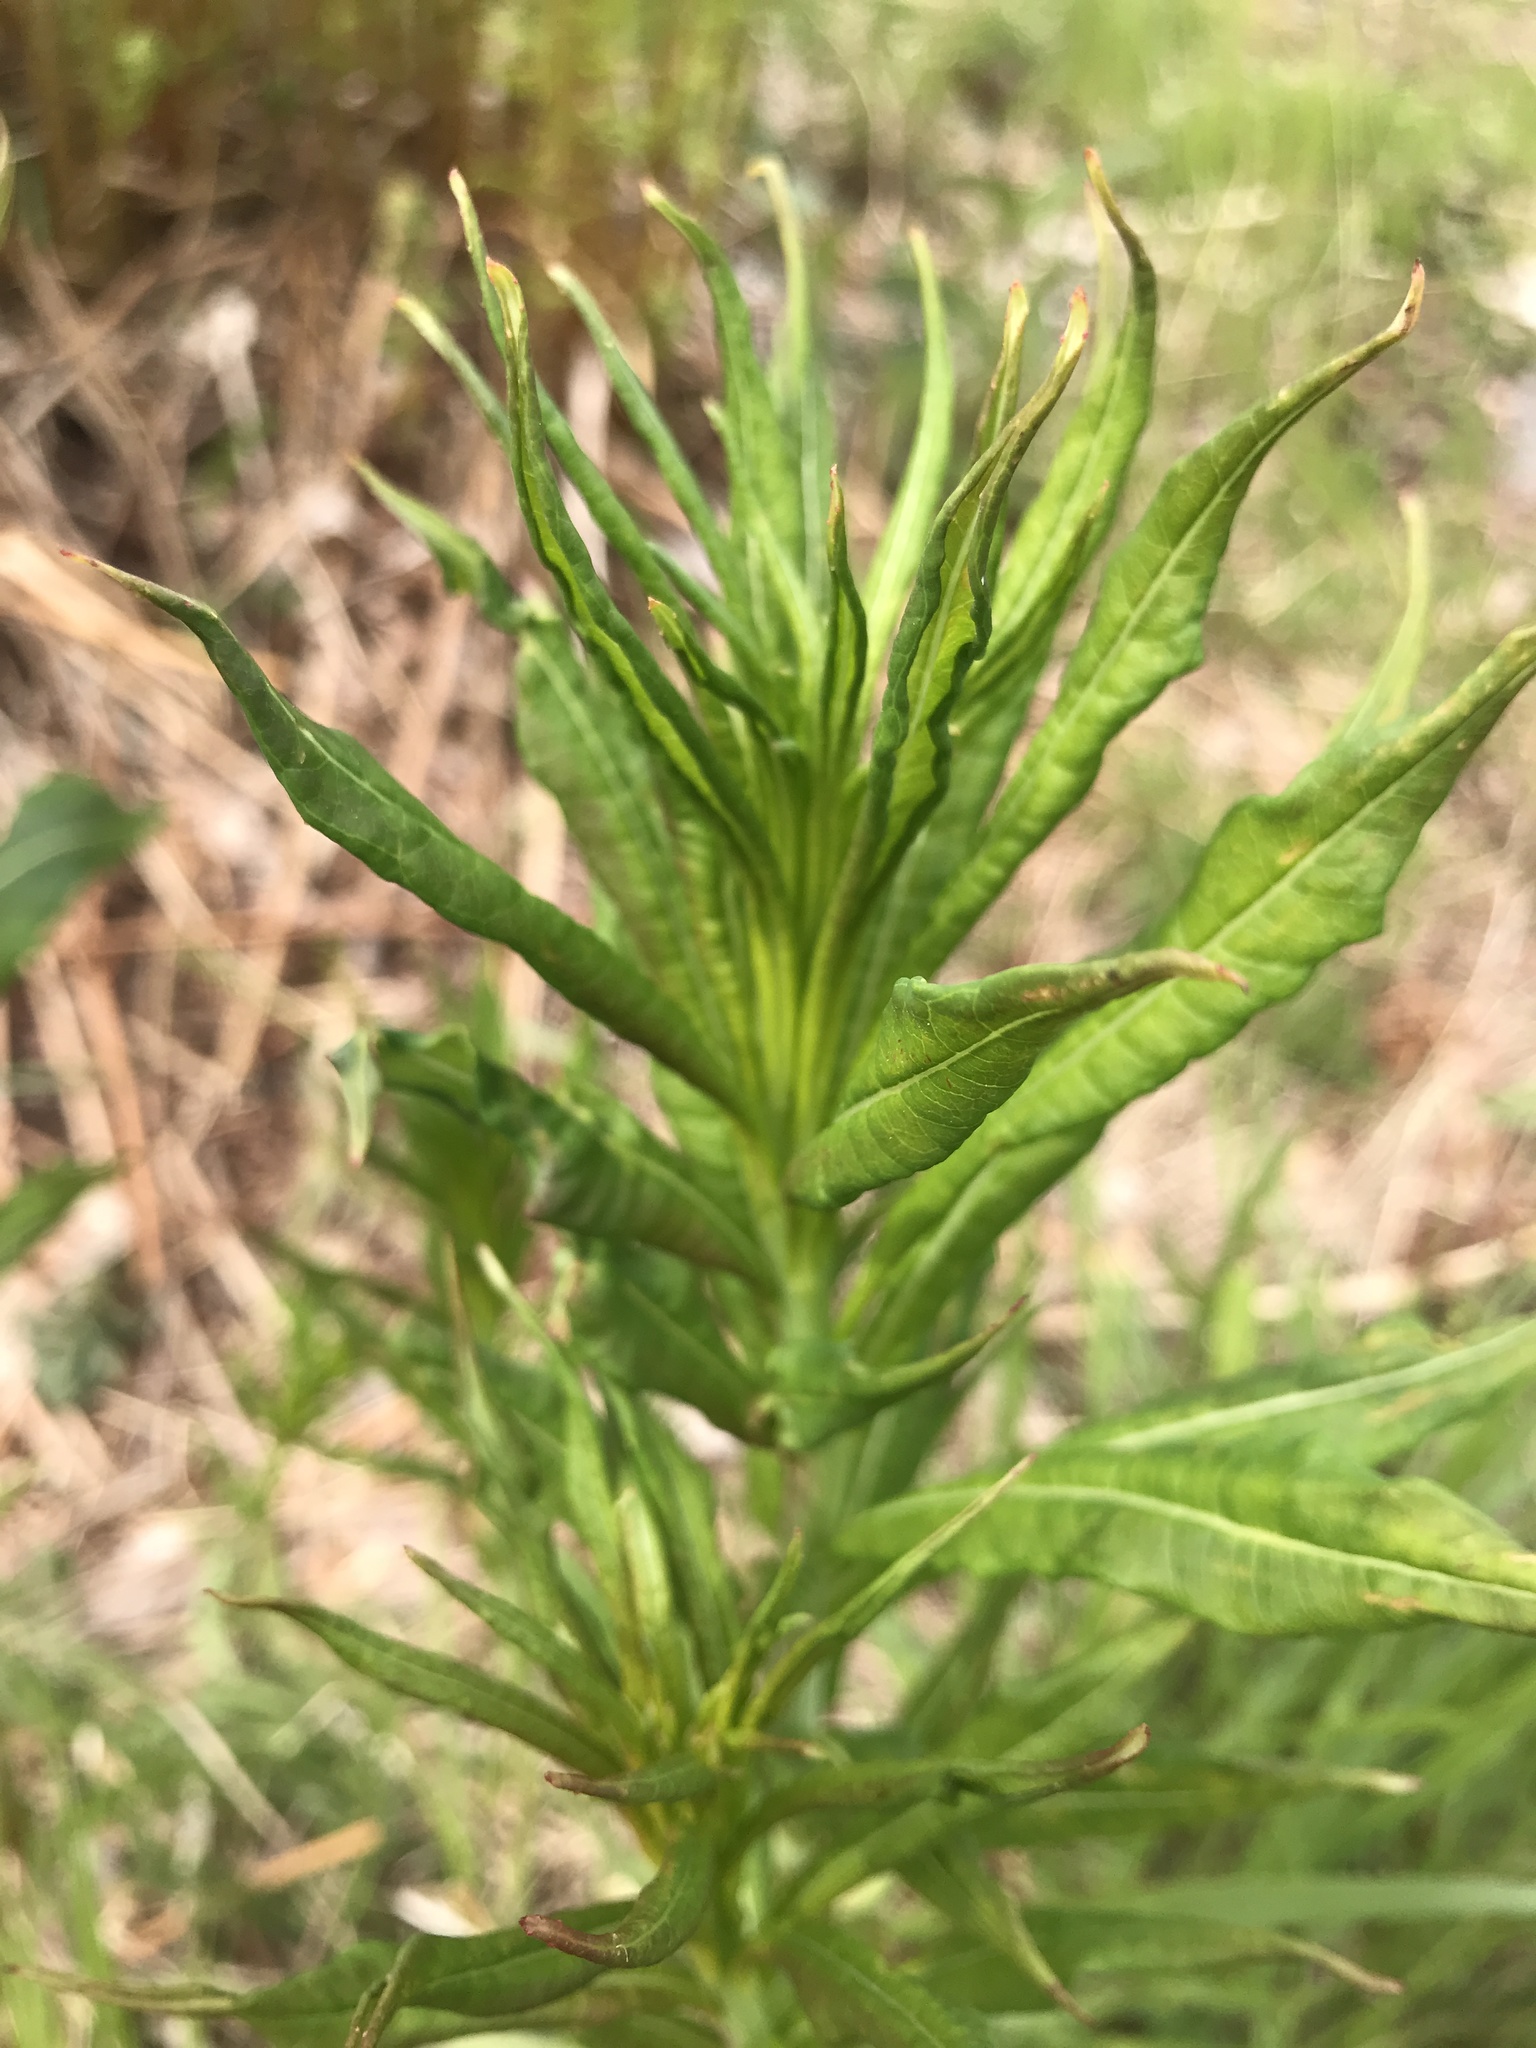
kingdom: Plantae
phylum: Tracheophyta
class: Magnoliopsida
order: Myrtales
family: Onagraceae
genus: Chamaenerion
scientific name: Chamaenerion angustifolium
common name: Fireweed
